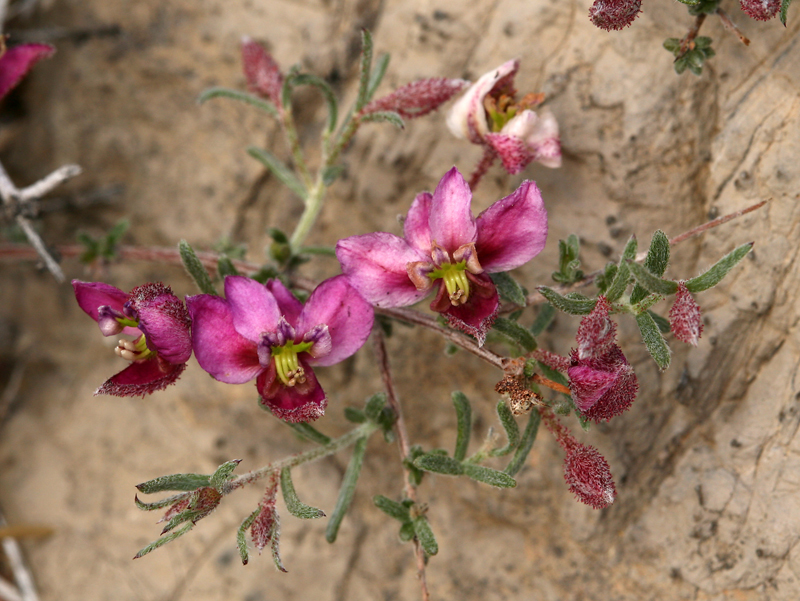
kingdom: Plantae
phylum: Tracheophyta
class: Magnoliopsida
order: Zygophyllales
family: Krameriaceae
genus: Krameria
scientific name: Krameria erecta
